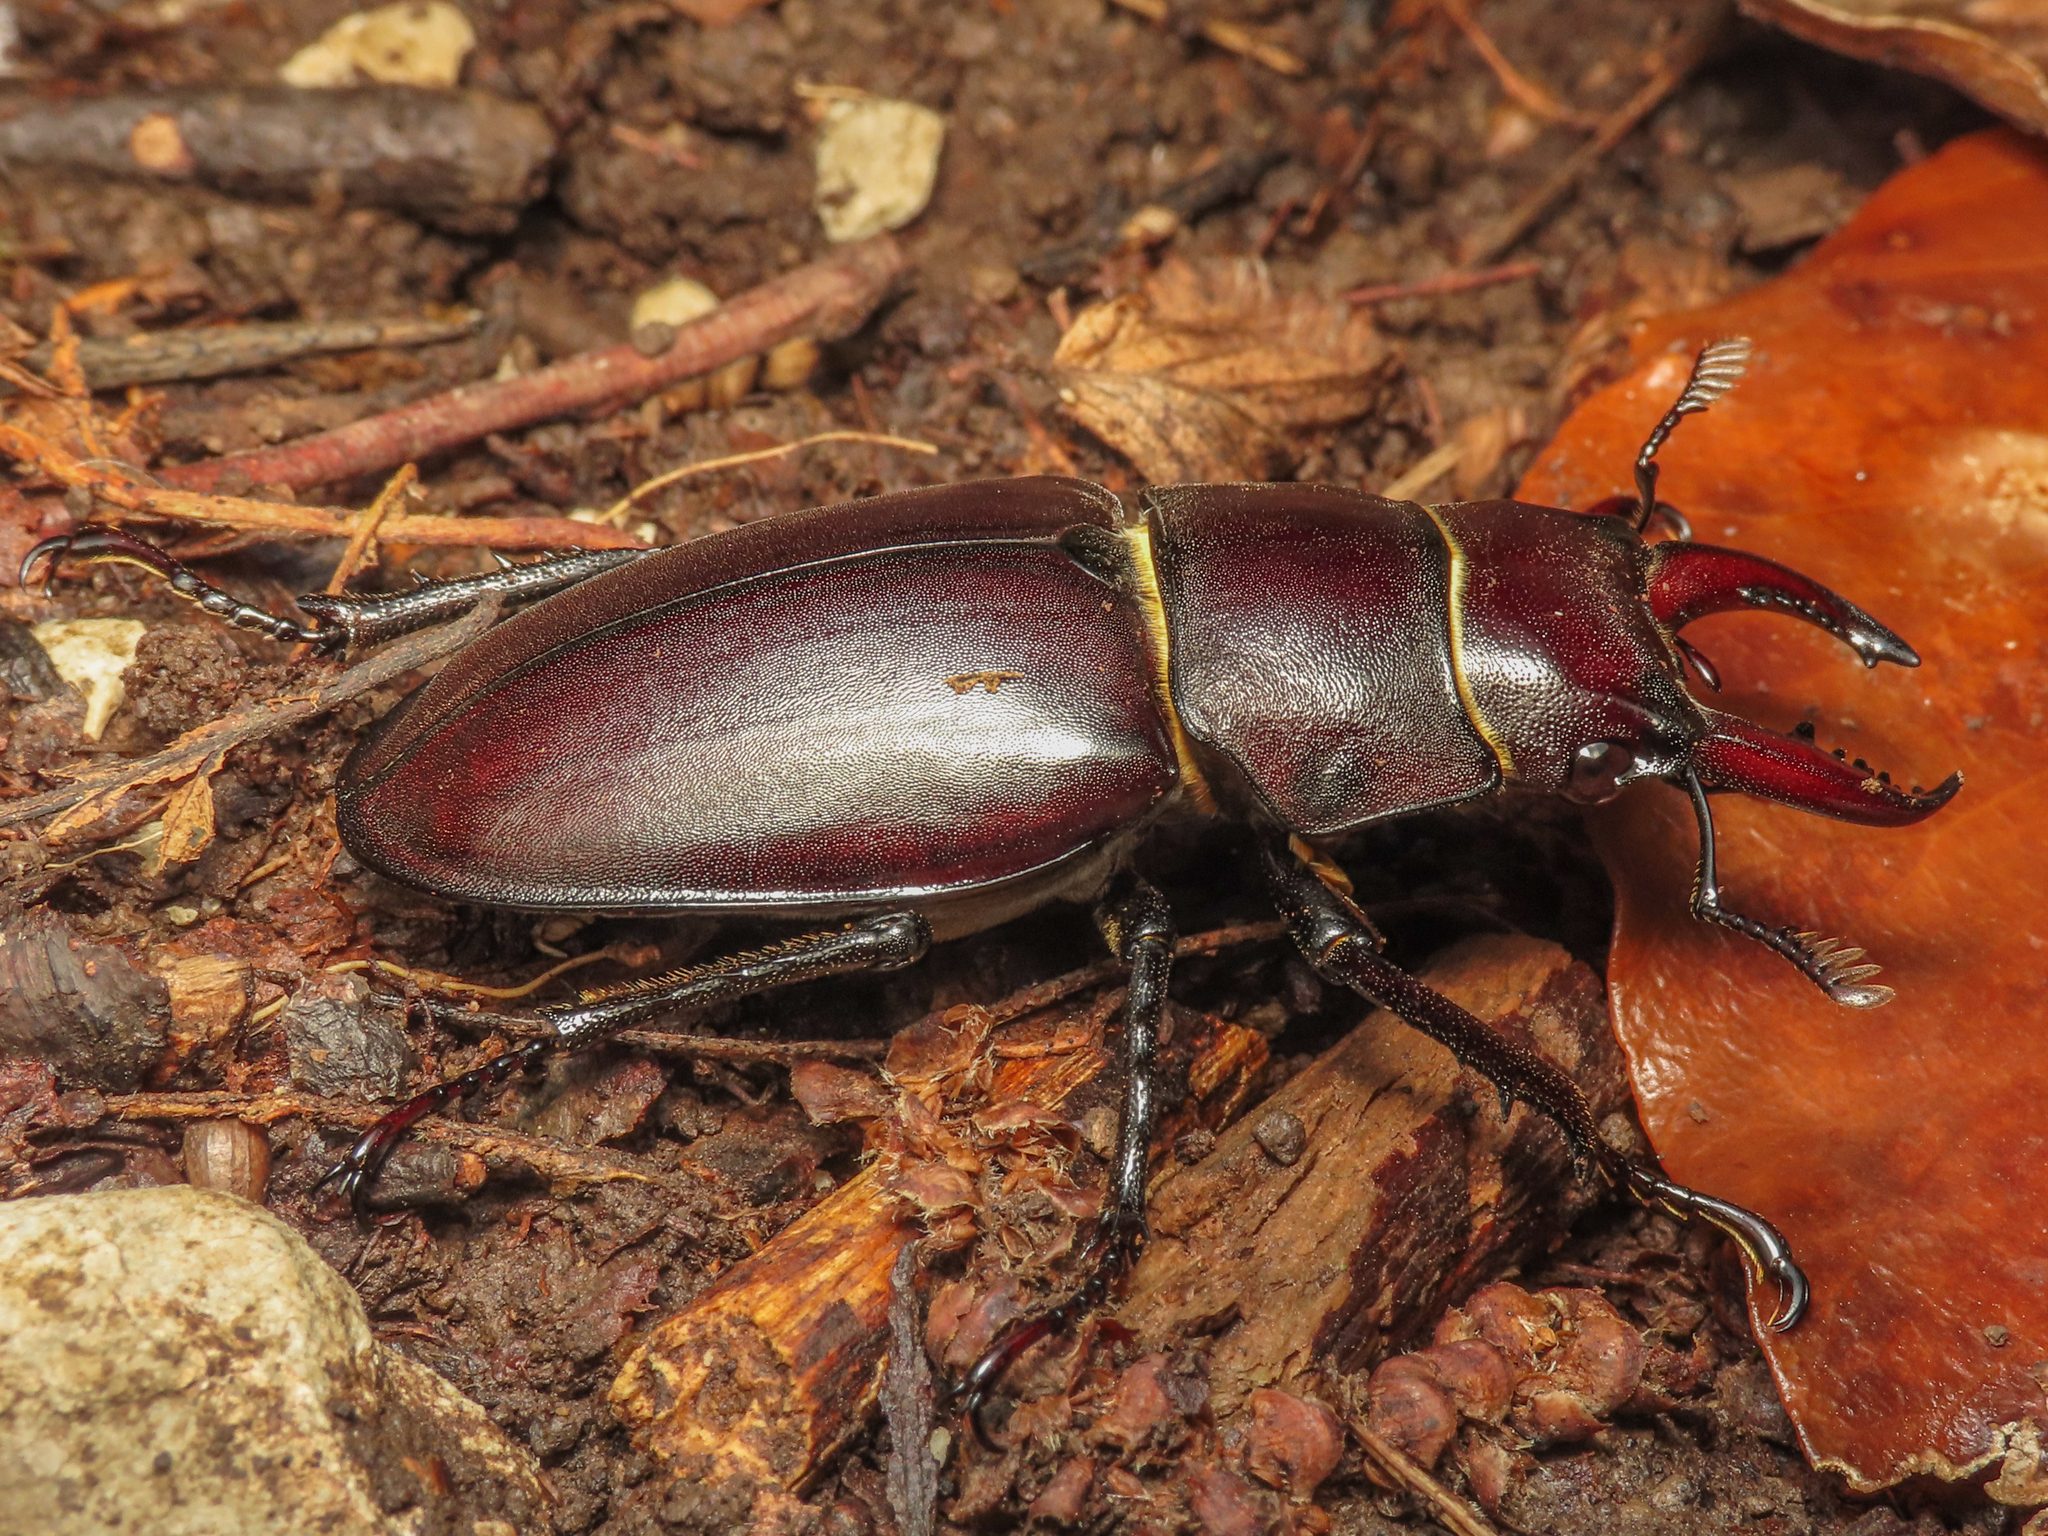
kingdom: Animalia
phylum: Arthropoda
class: Insecta
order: Coleoptera
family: Lucanidae
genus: Lucanus
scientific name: Lucanus tetraodon
